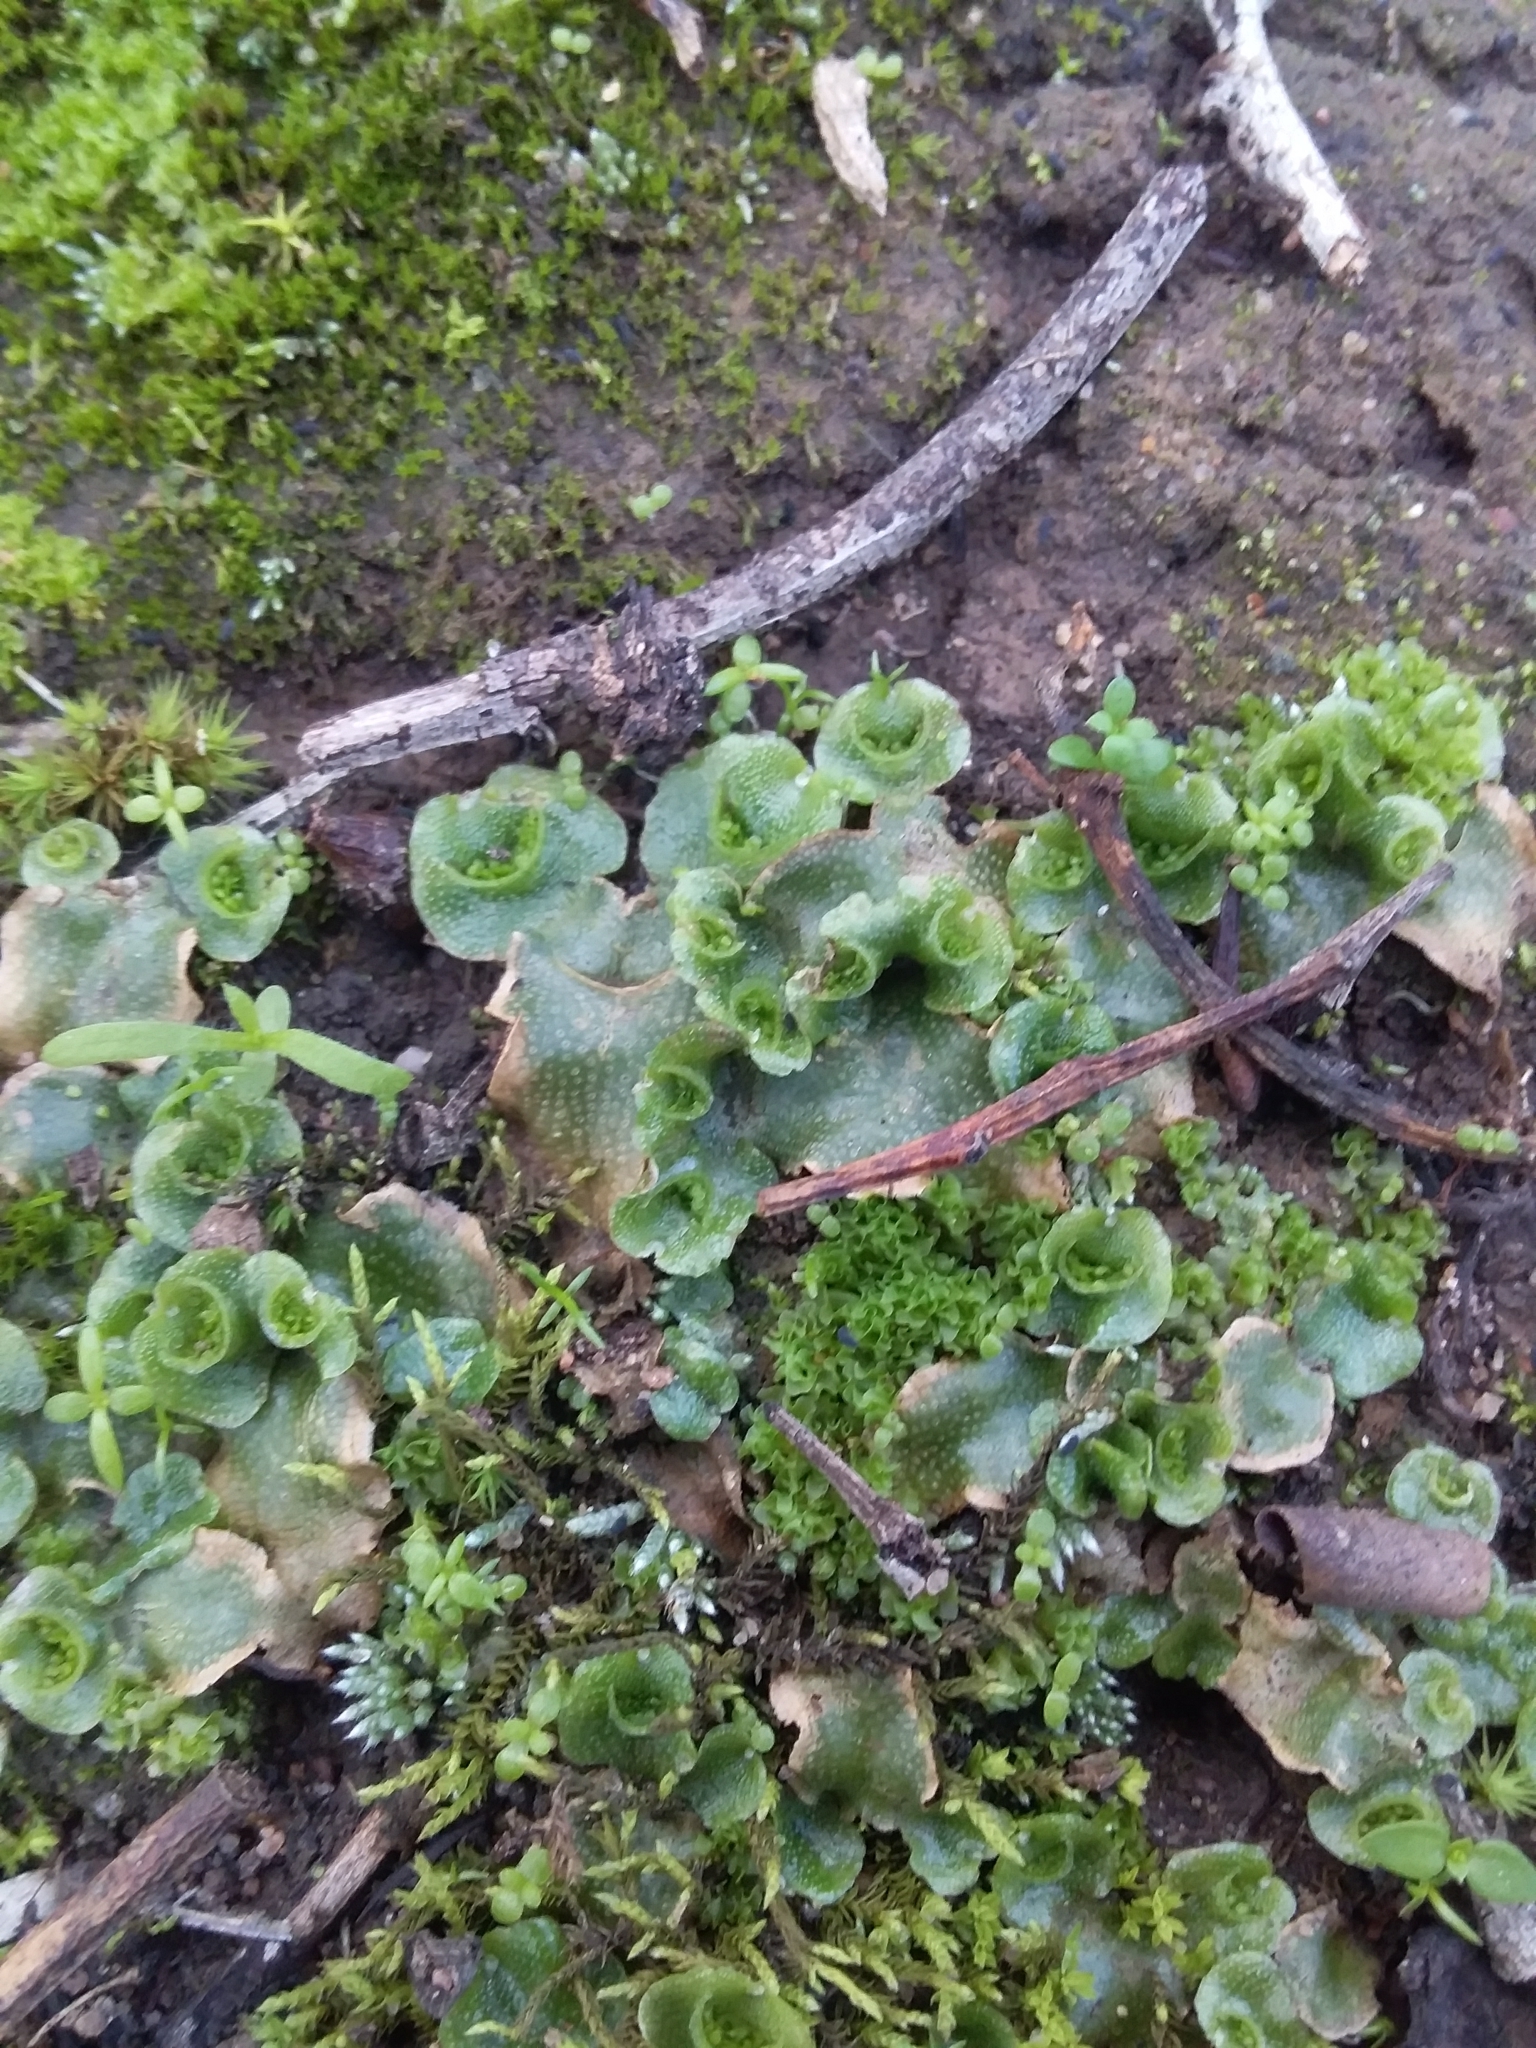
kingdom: Plantae
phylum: Marchantiophyta
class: Marchantiopsida
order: Lunulariales
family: Lunulariaceae
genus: Lunularia
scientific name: Lunularia cruciata
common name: Crescent-cup liverwort
